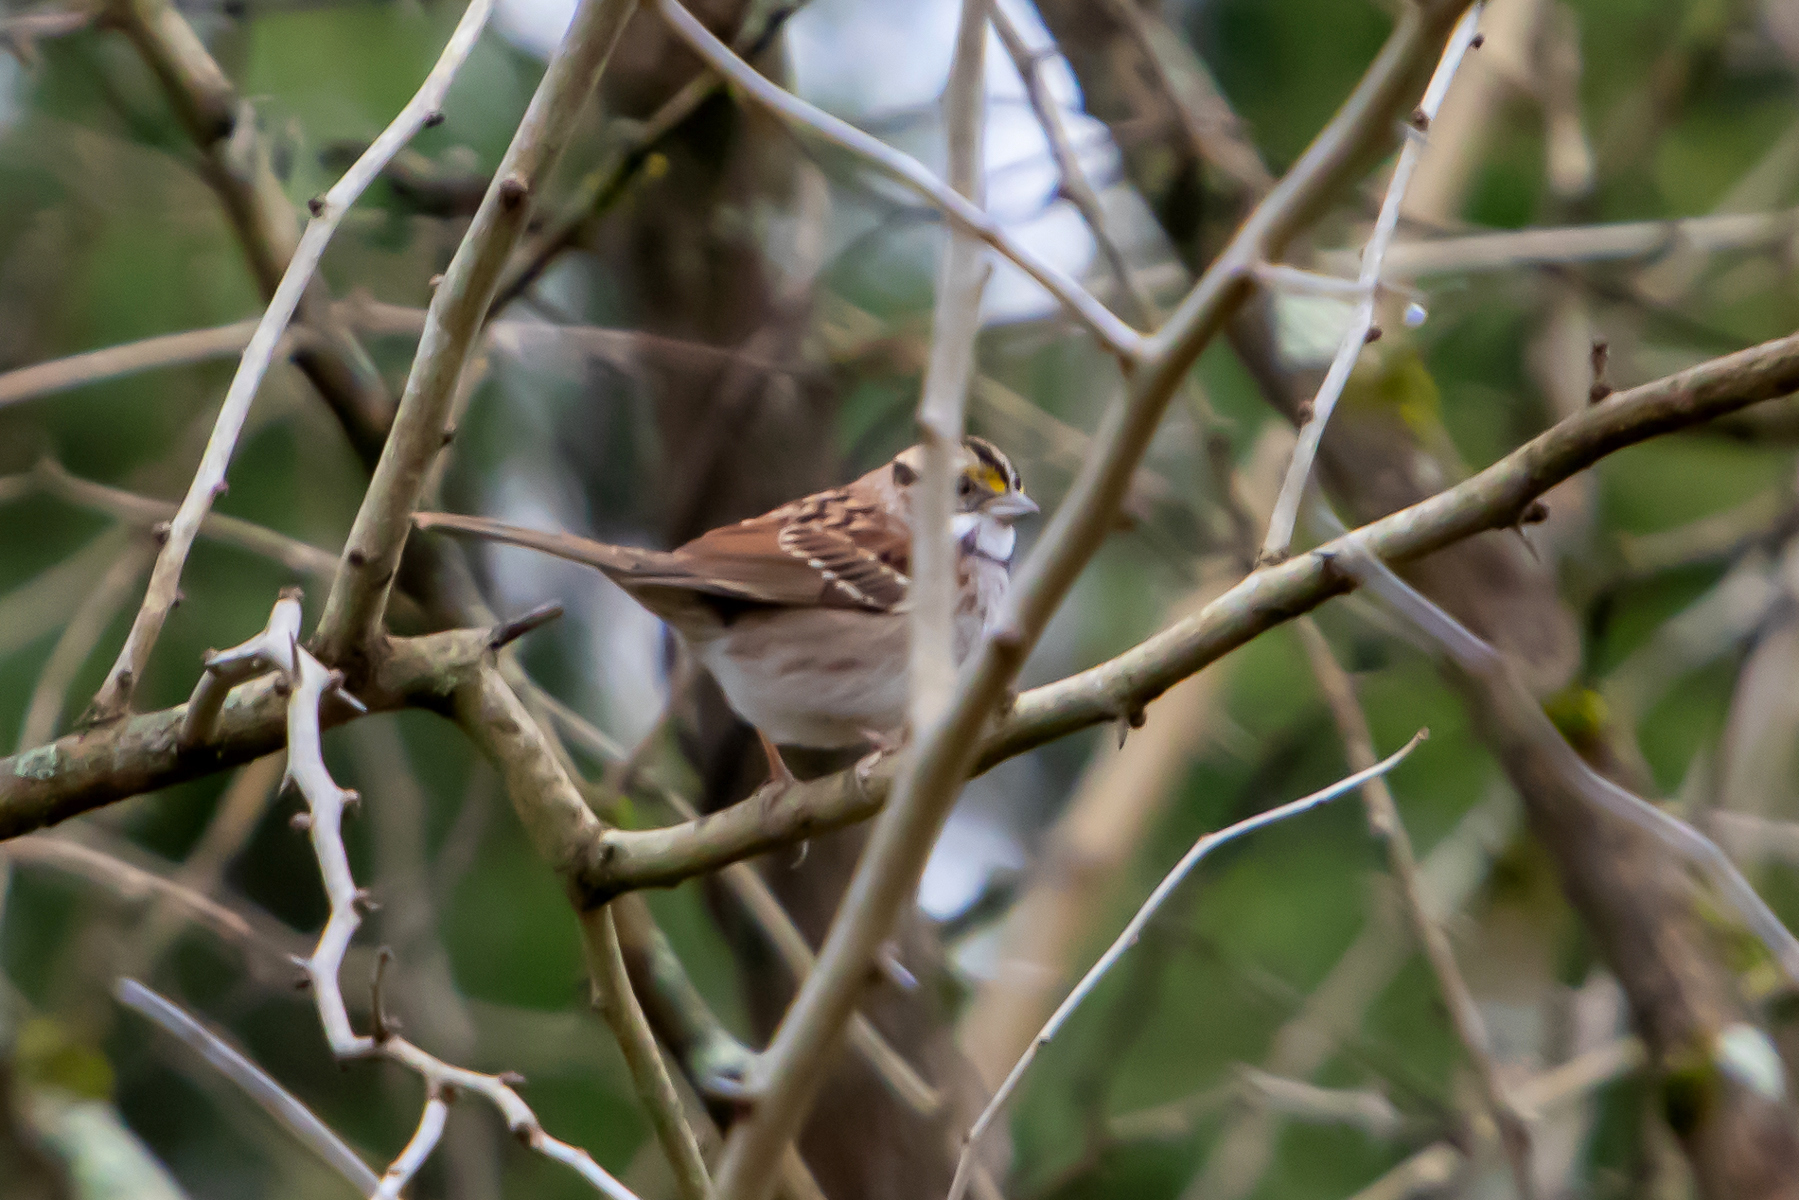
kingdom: Animalia
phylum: Chordata
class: Aves
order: Passeriformes
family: Passerellidae
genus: Zonotrichia
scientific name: Zonotrichia albicollis
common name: White-throated sparrow
